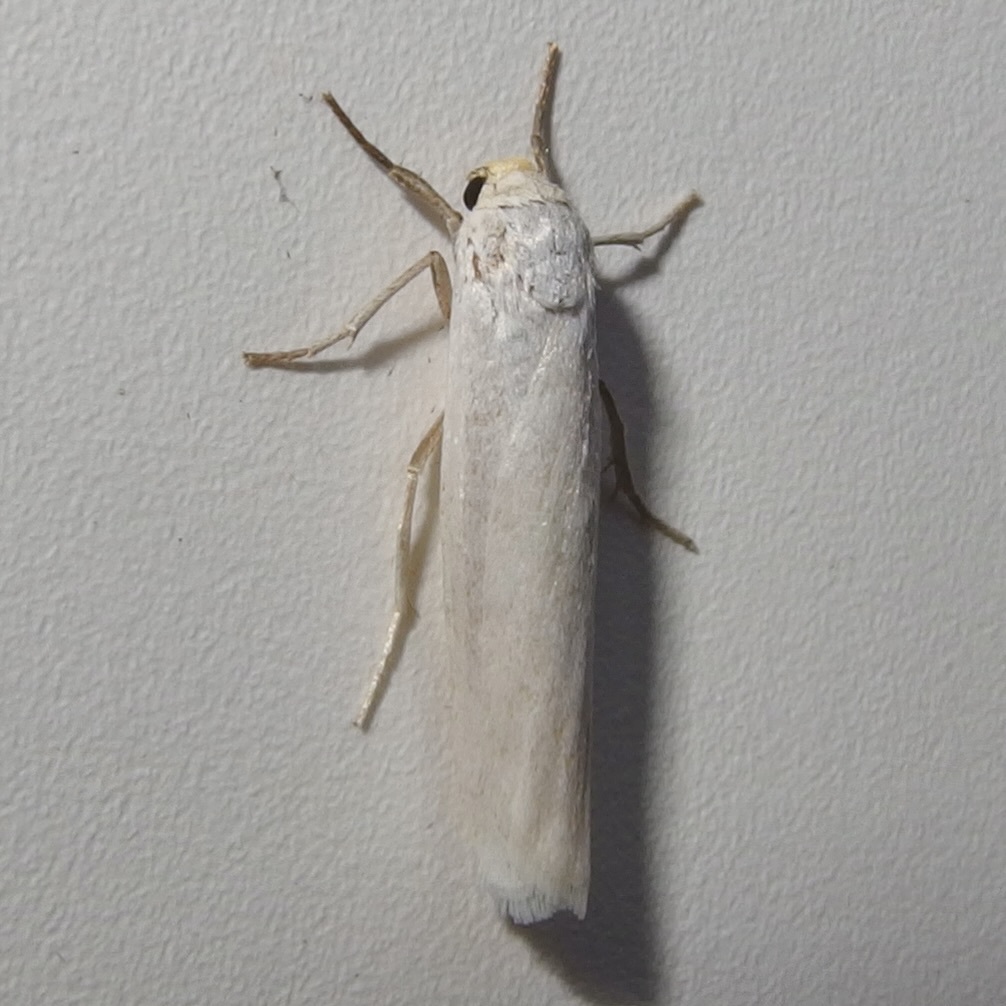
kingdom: Animalia
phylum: Arthropoda
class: Insecta
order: Lepidoptera
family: Erebidae
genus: Crambidia
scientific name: Crambidia cephalica
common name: Yellow-headed lichen moth
